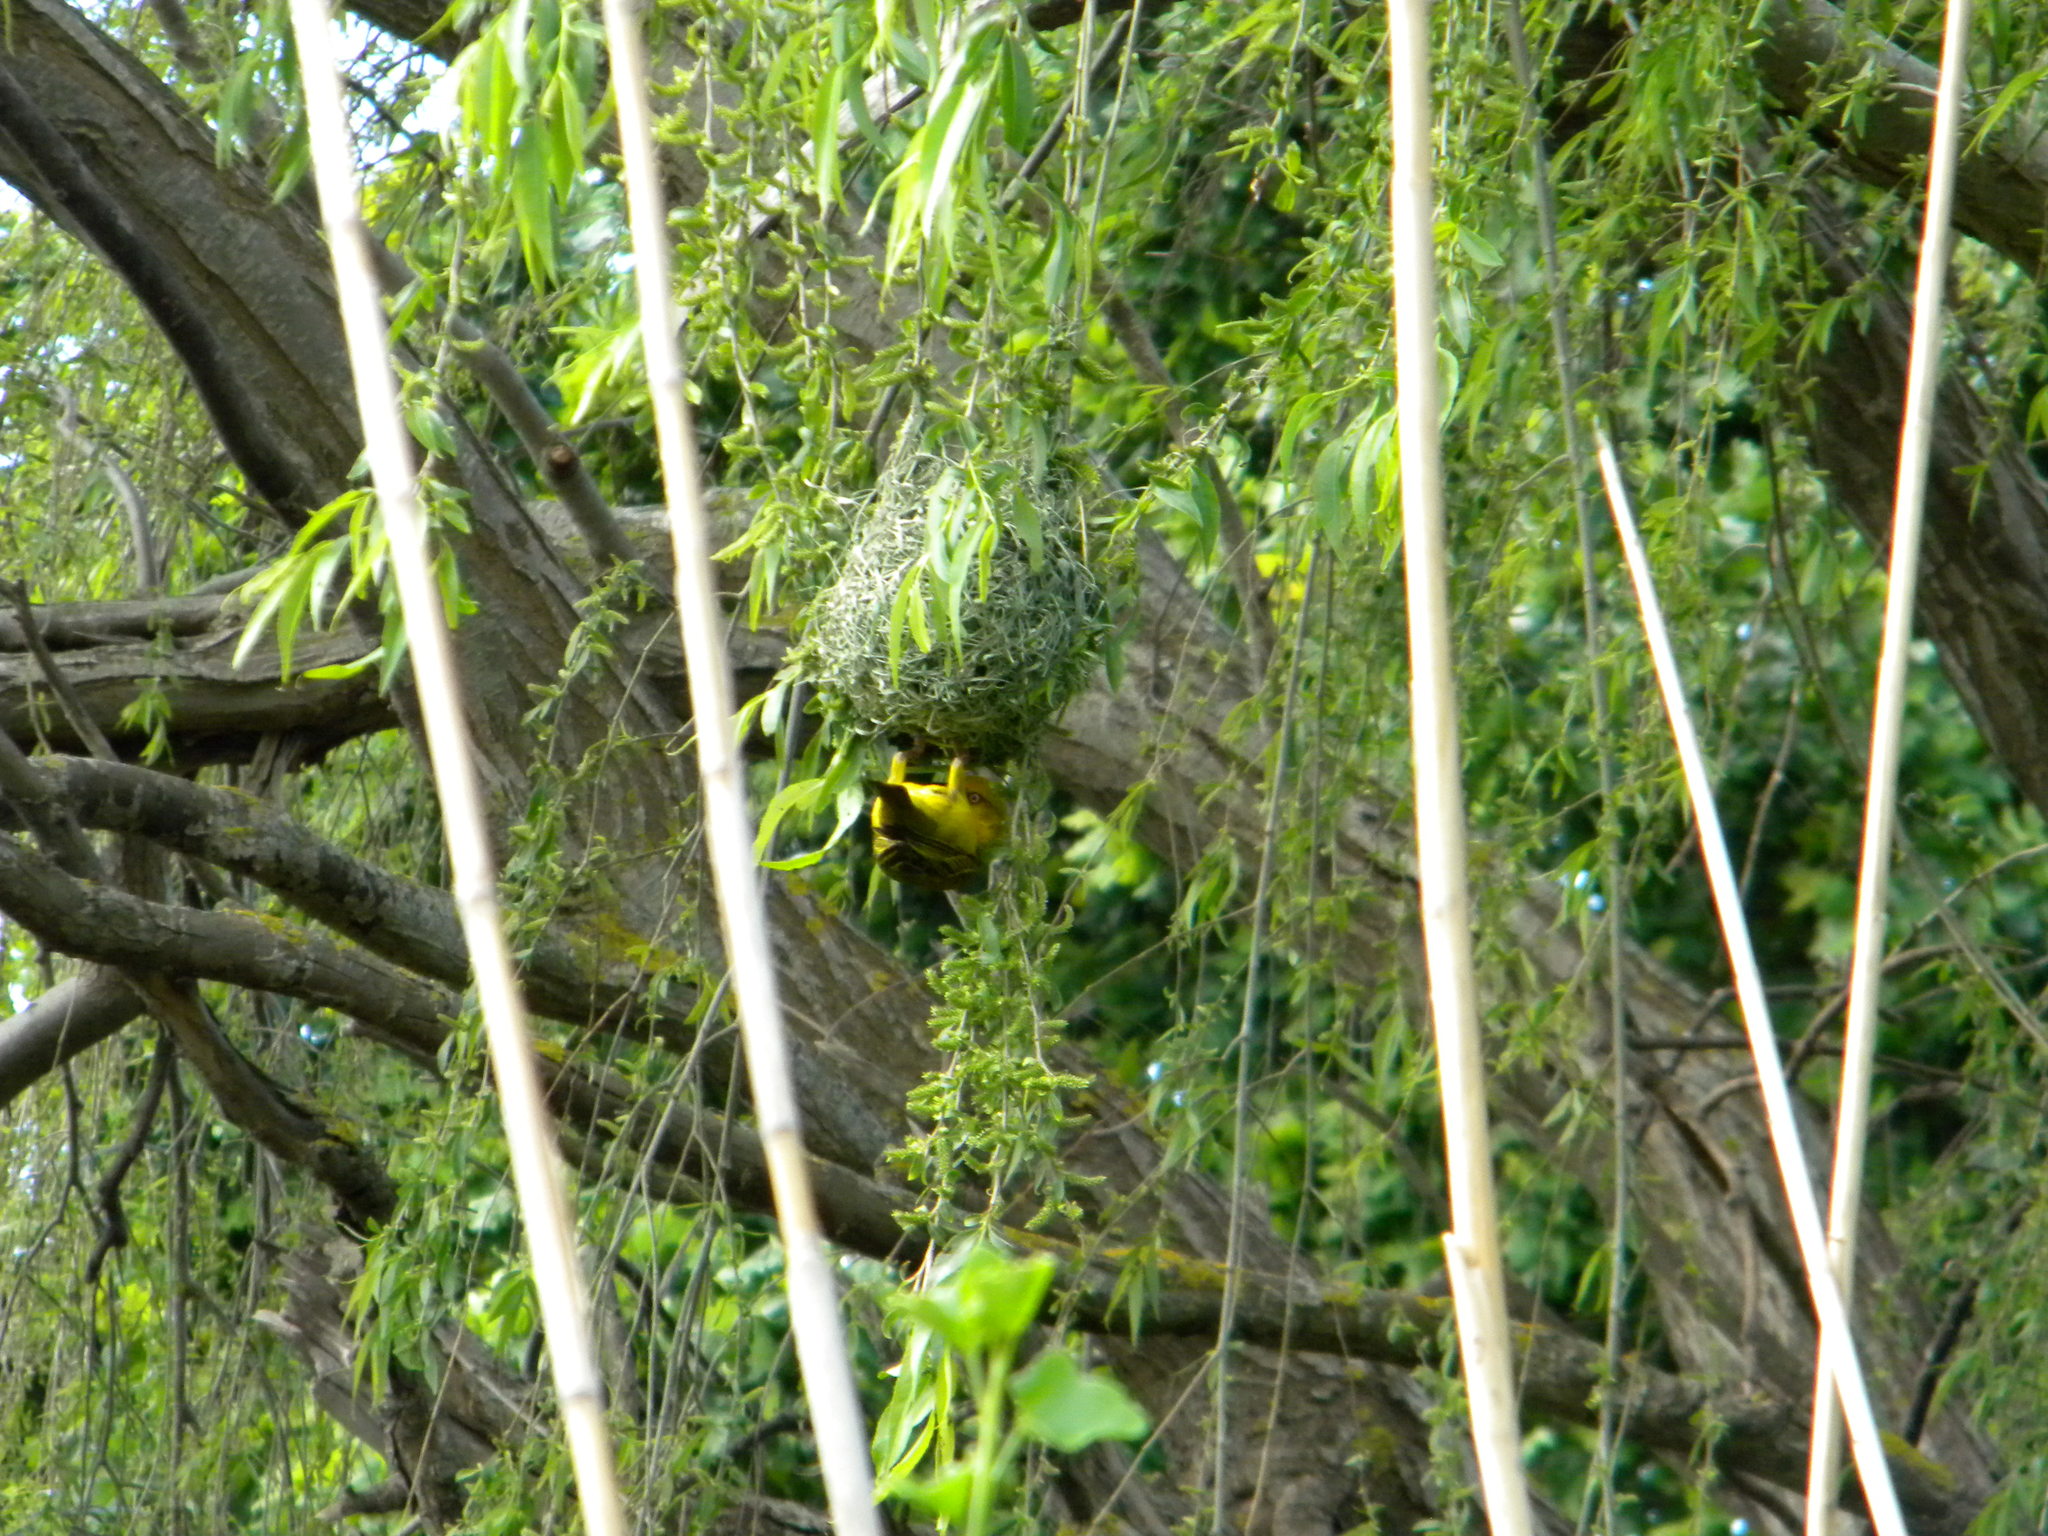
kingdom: Animalia
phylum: Chordata
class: Aves
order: Passeriformes
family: Ploceidae
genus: Ploceus
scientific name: Ploceus capensis
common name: Cape weaver
